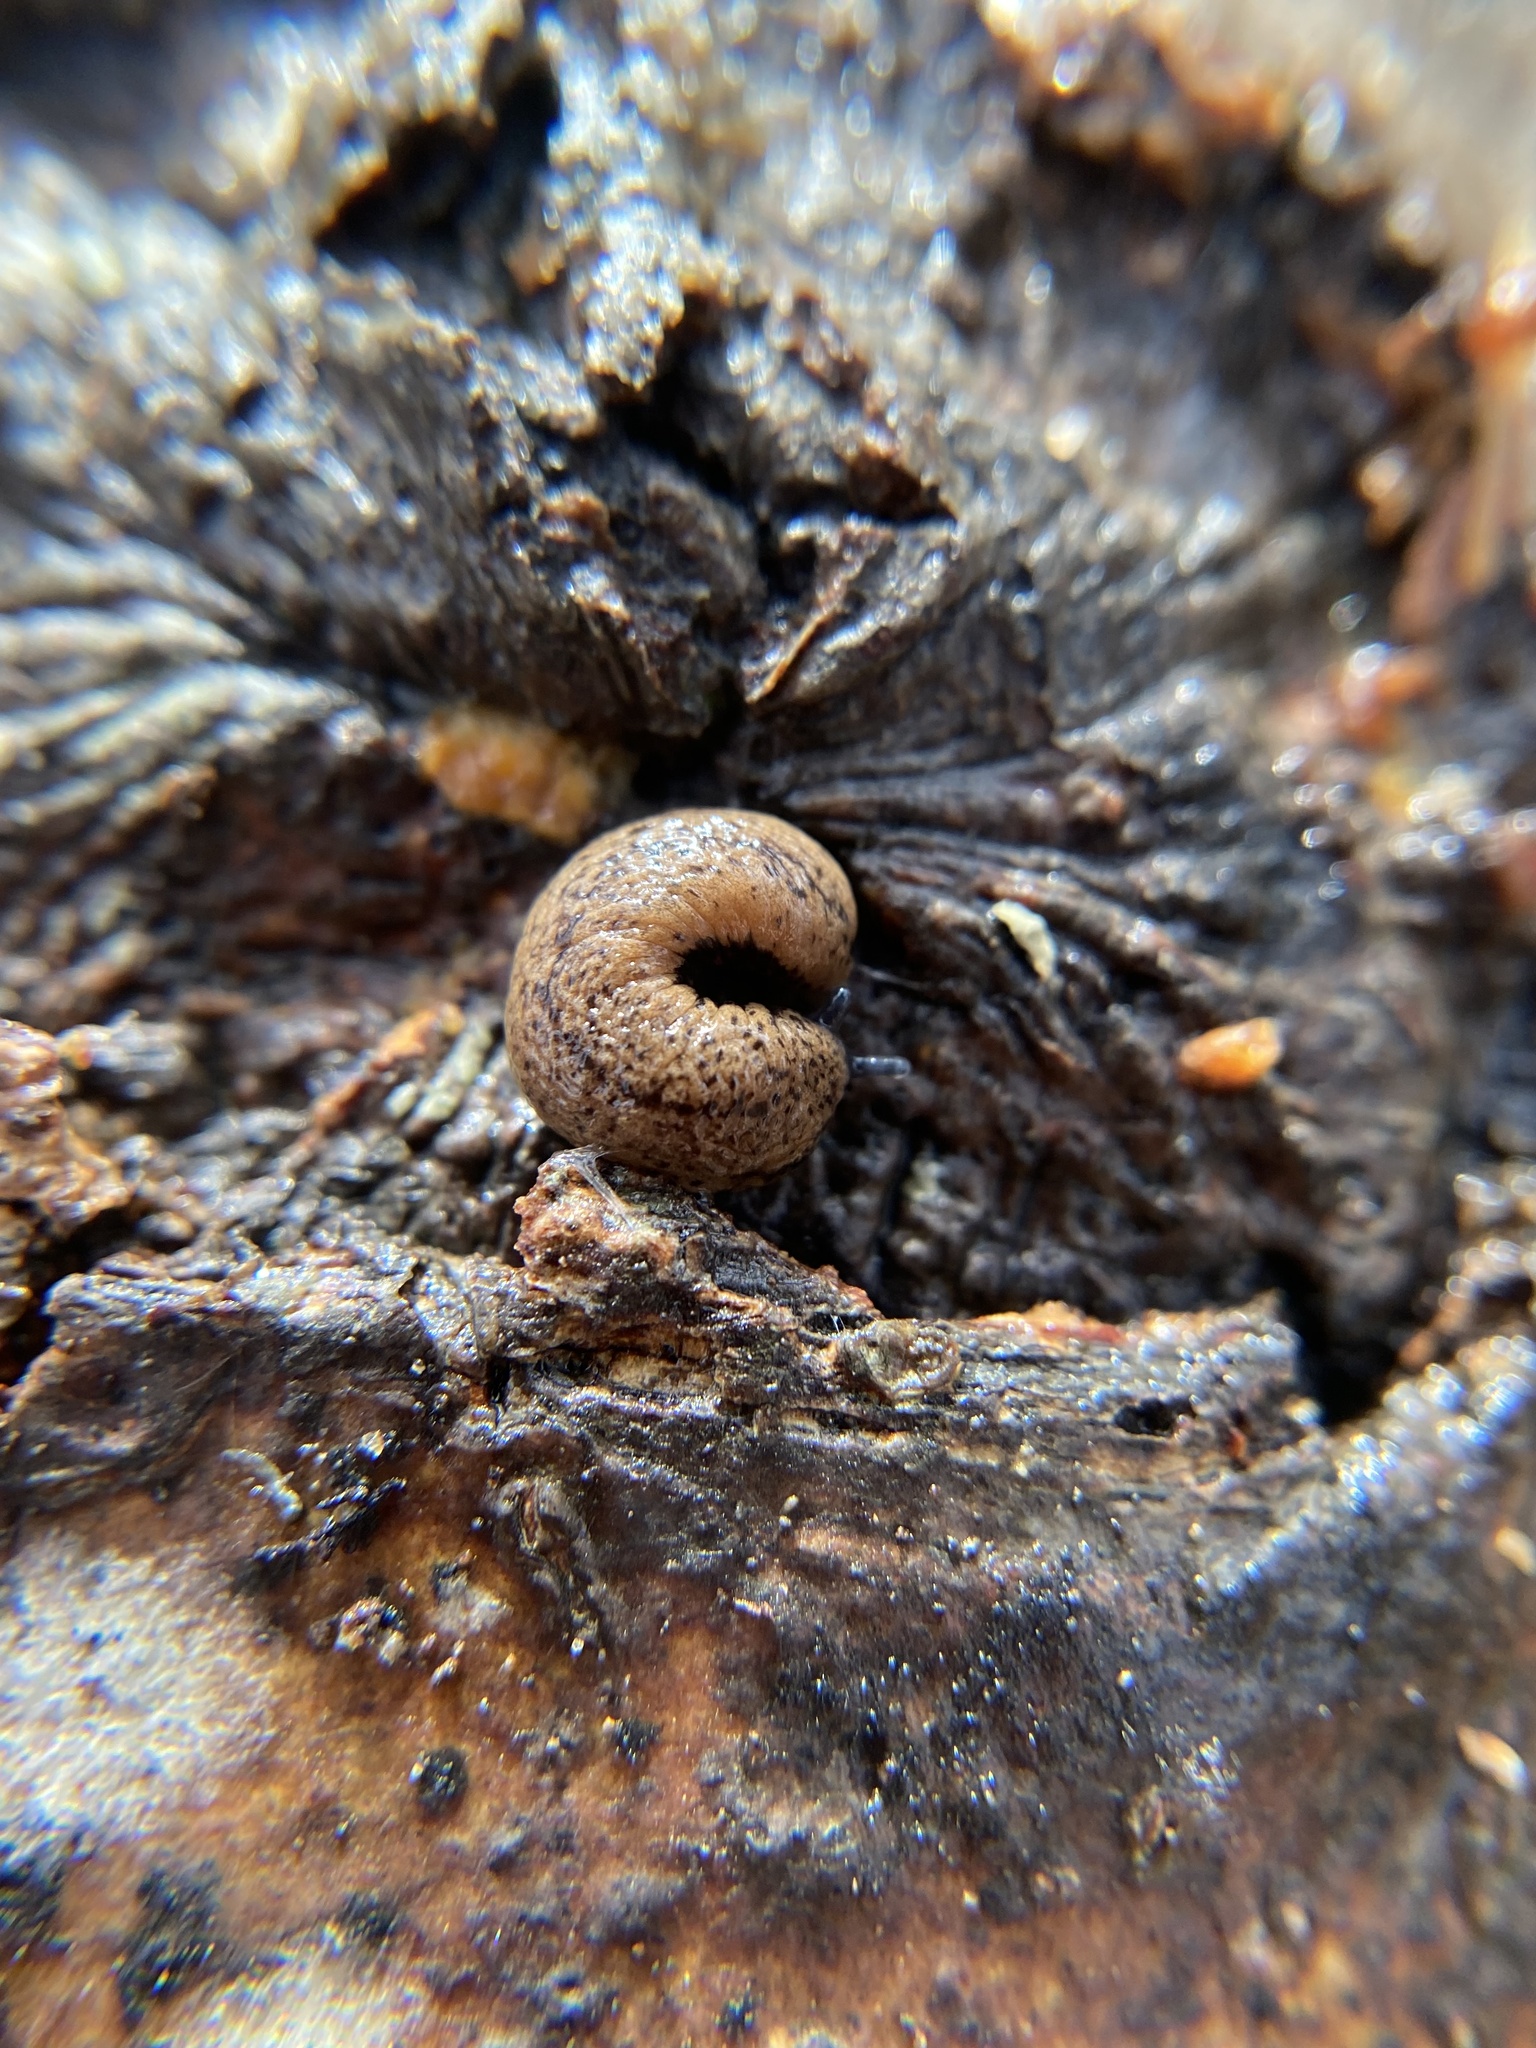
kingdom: Animalia
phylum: Mollusca
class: Gastropoda
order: Stylommatophora
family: Philomycidae
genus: Pallifera
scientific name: Pallifera fosteri
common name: Foster mantleslug
